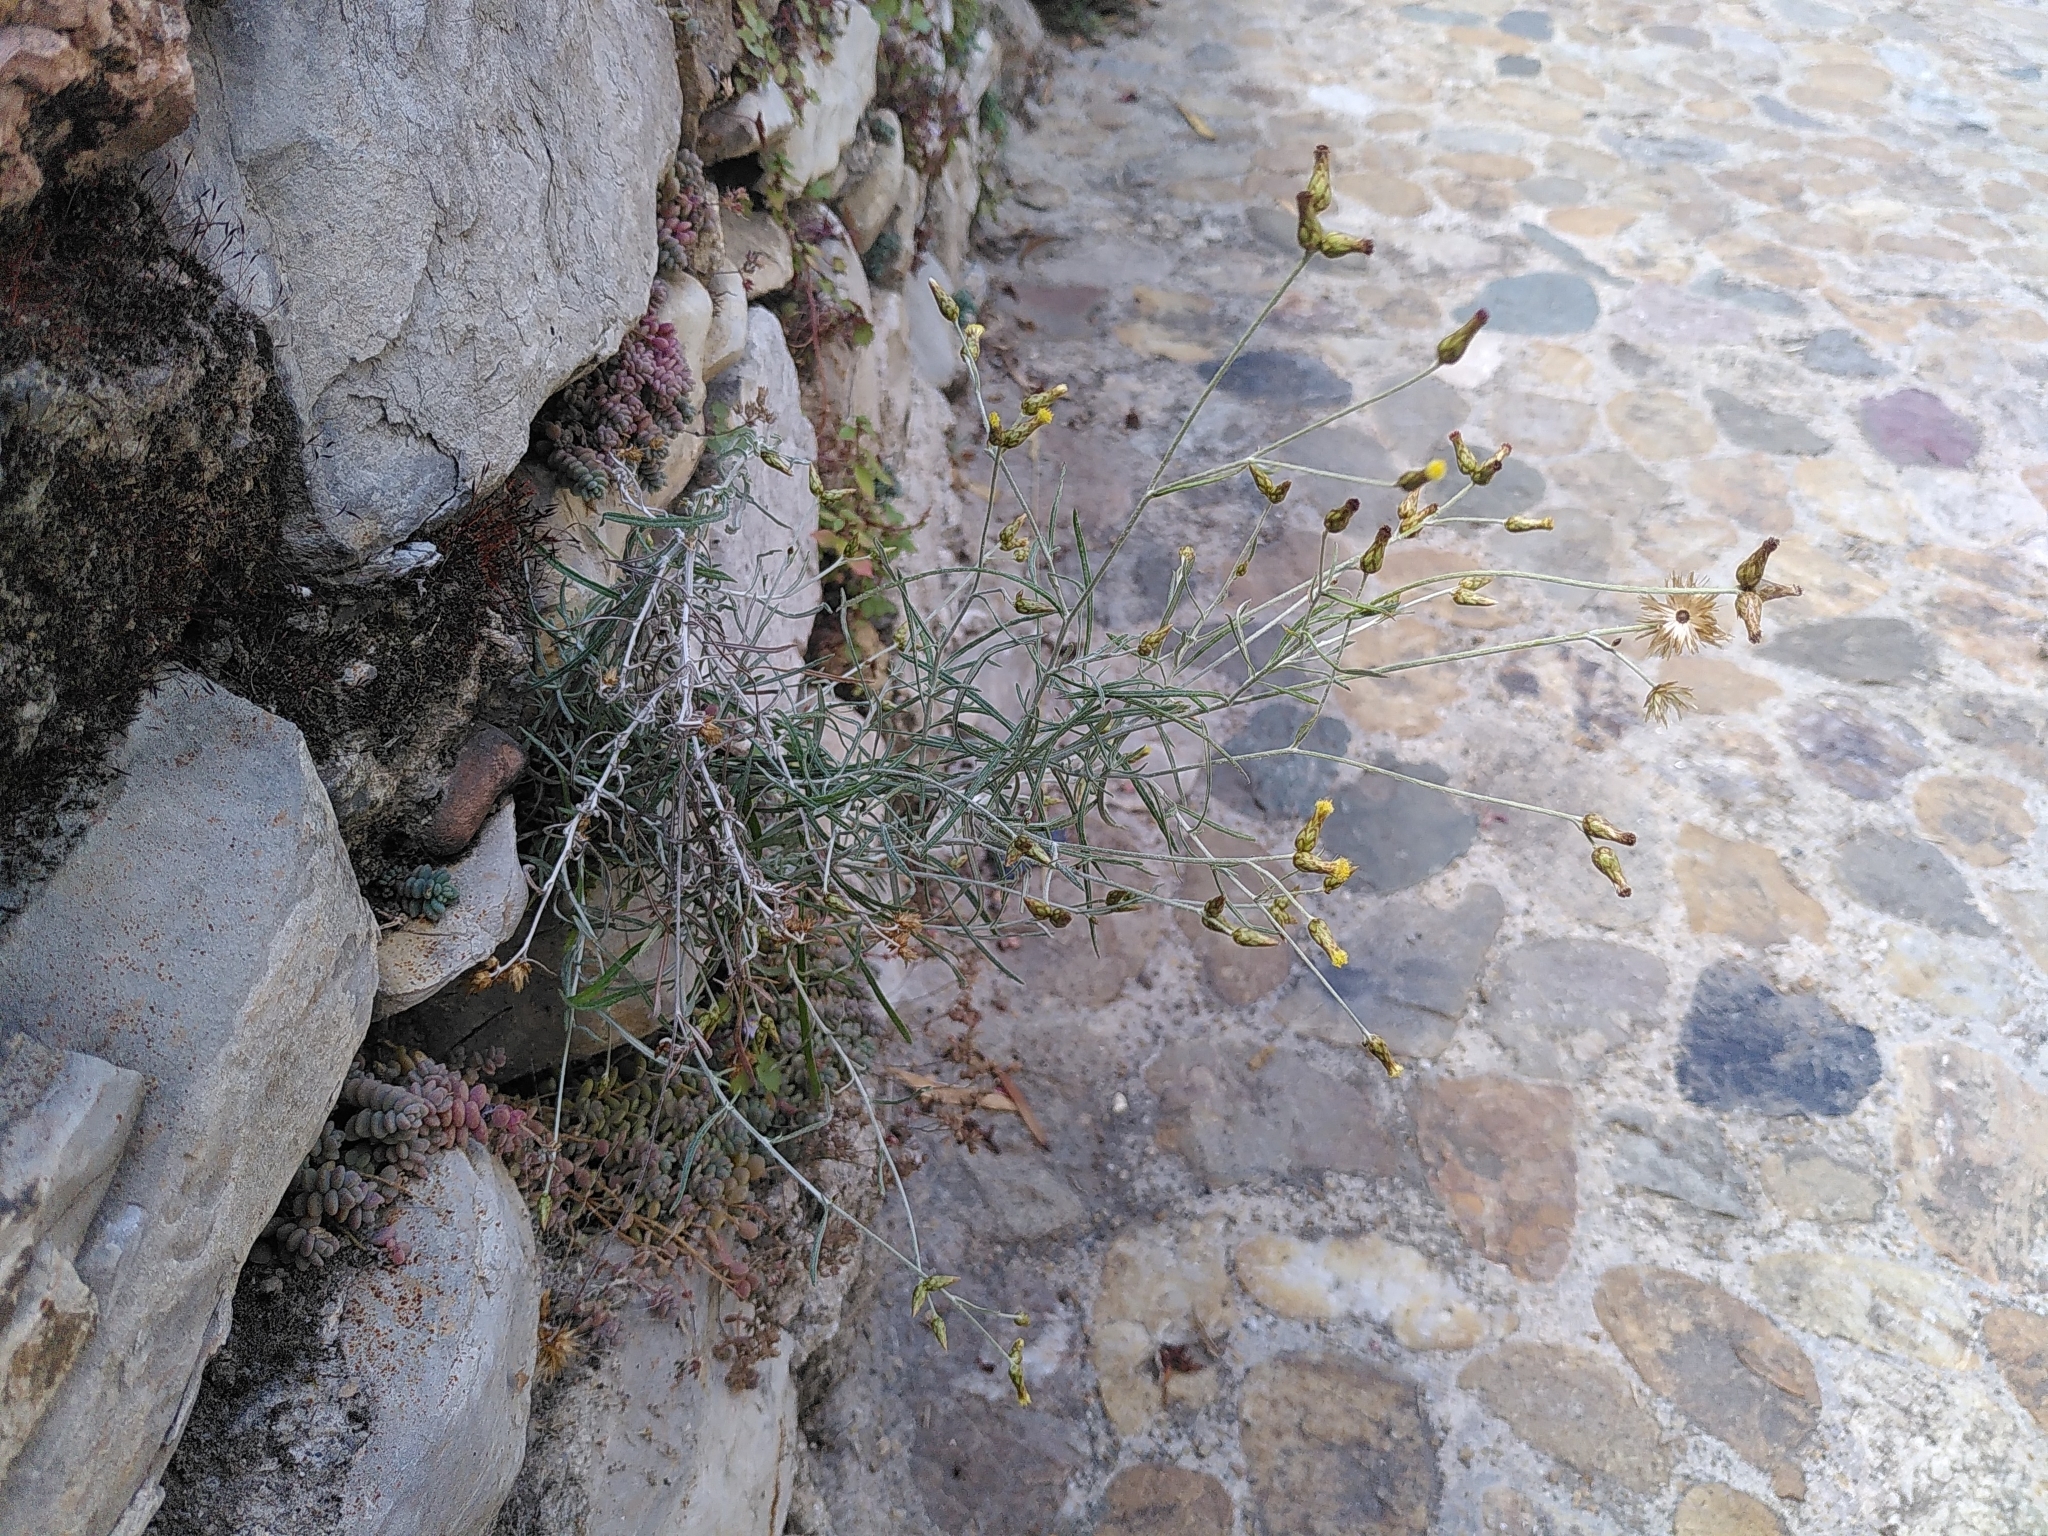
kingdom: Plantae
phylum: Tracheophyta
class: Magnoliopsida
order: Asterales
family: Asteraceae
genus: Phagnalon
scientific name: Phagnalon sordidum
